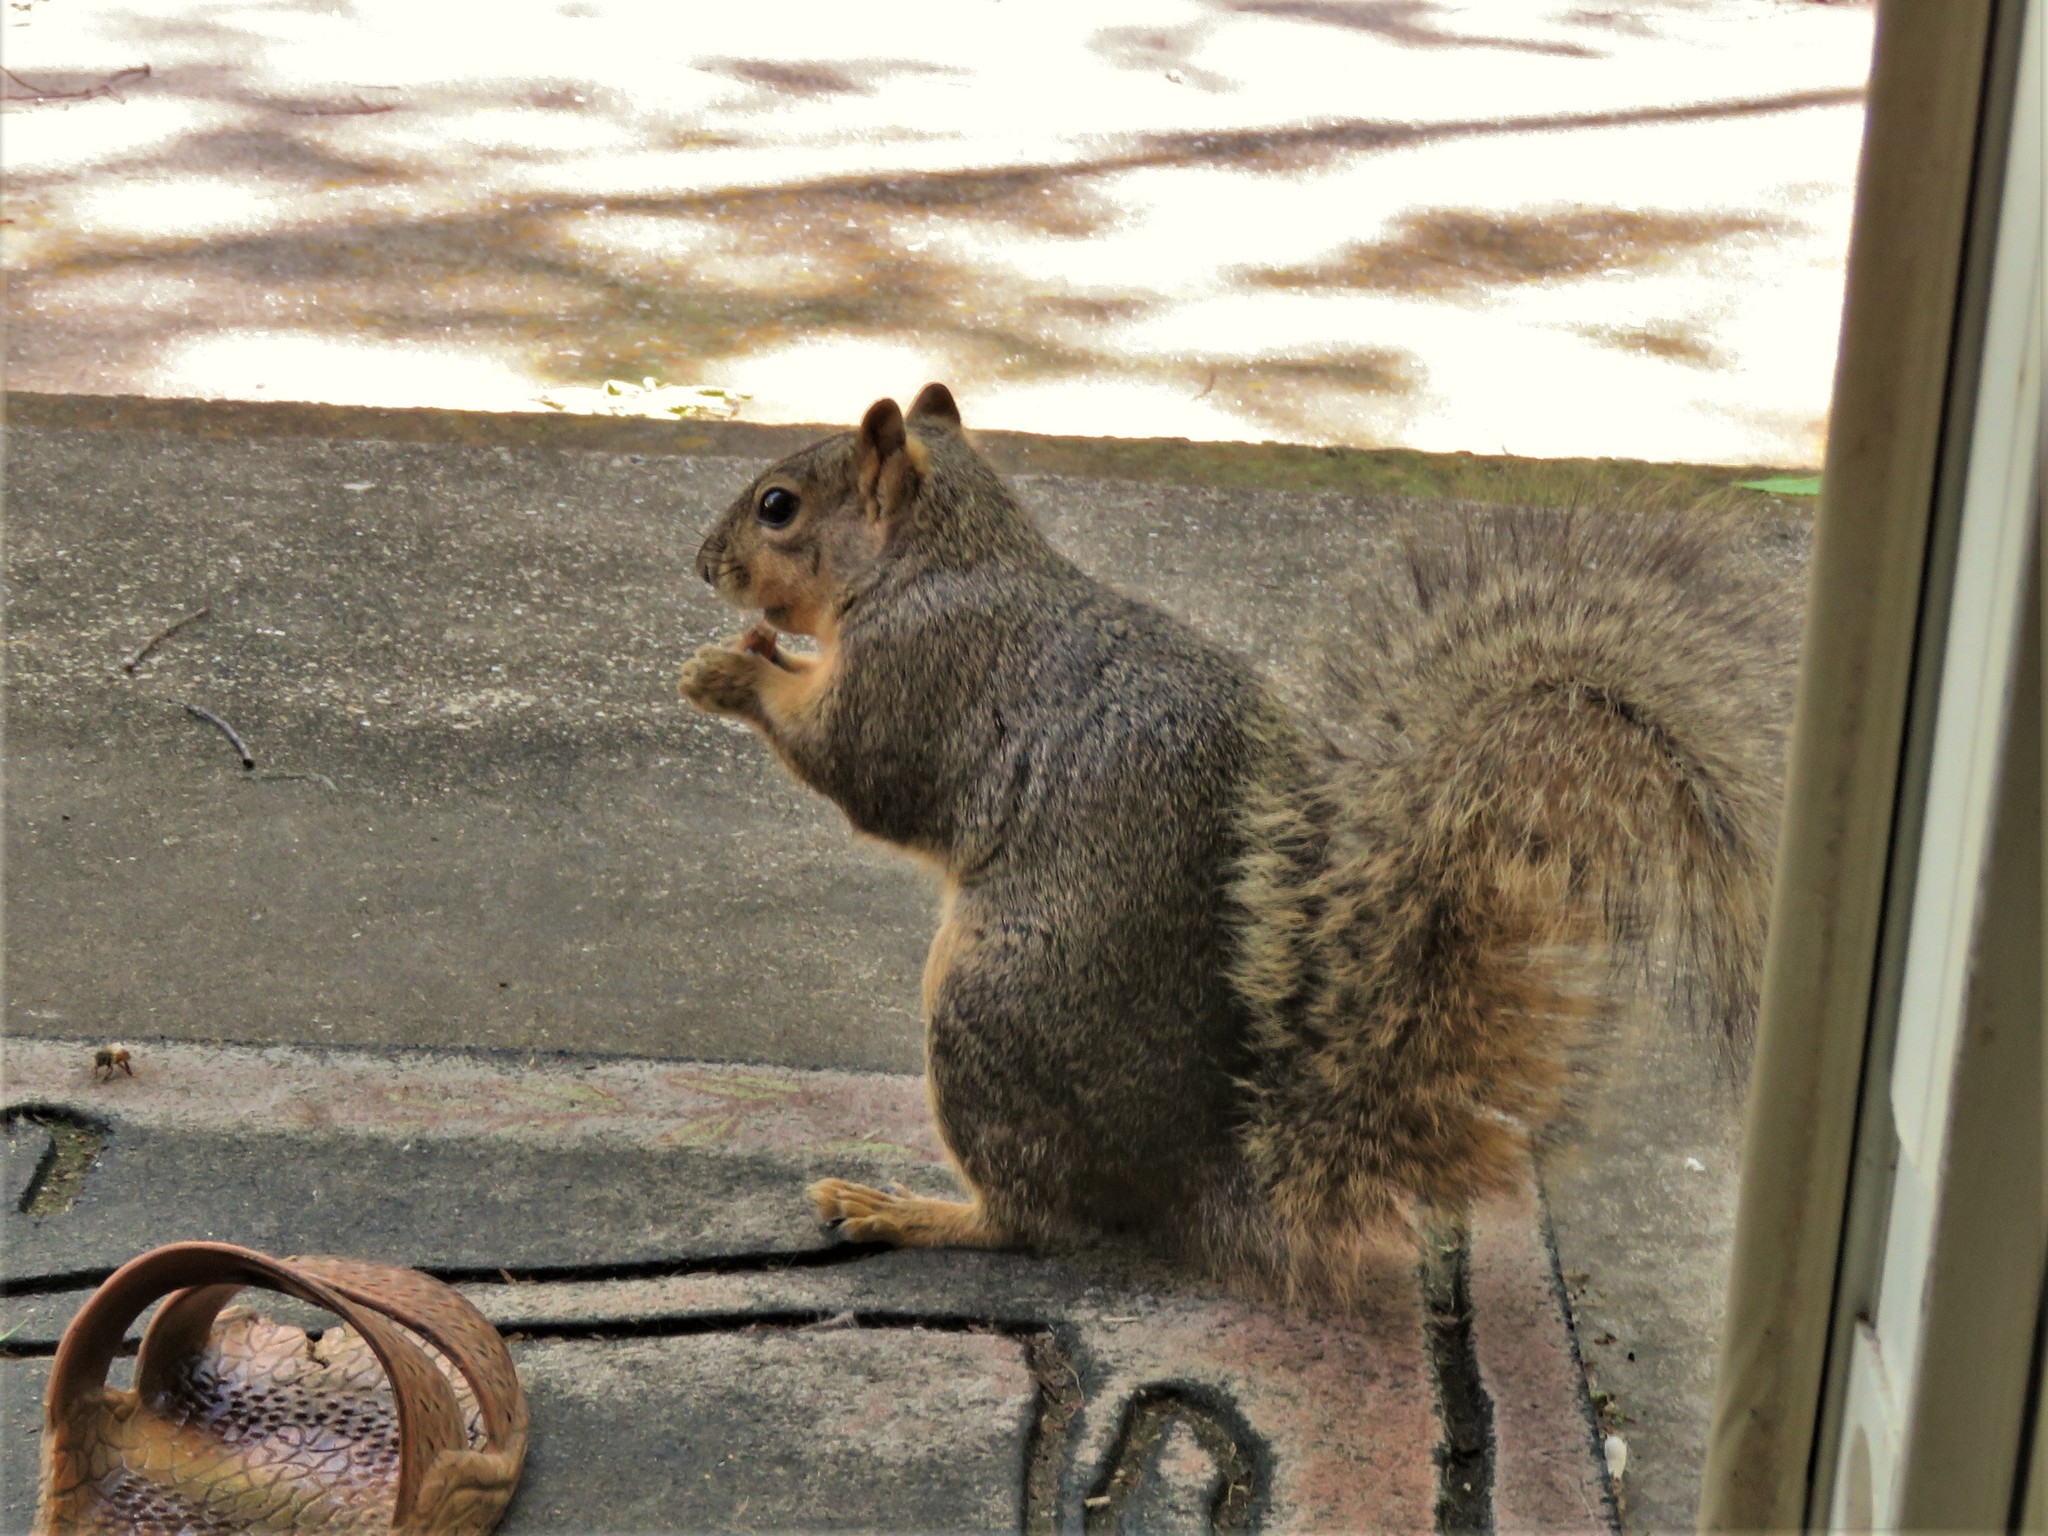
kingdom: Animalia
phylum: Chordata
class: Mammalia
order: Rodentia
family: Sciuridae
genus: Sciurus
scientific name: Sciurus niger
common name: Fox squirrel
